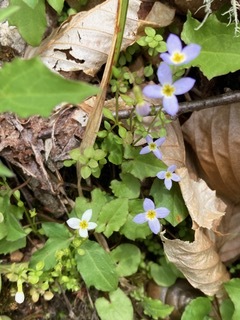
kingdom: Plantae
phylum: Tracheophyta
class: Magnoliopsida
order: Gentianales
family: Rubiaceae
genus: Houstonia
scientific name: Houstonia serpyllifolia
